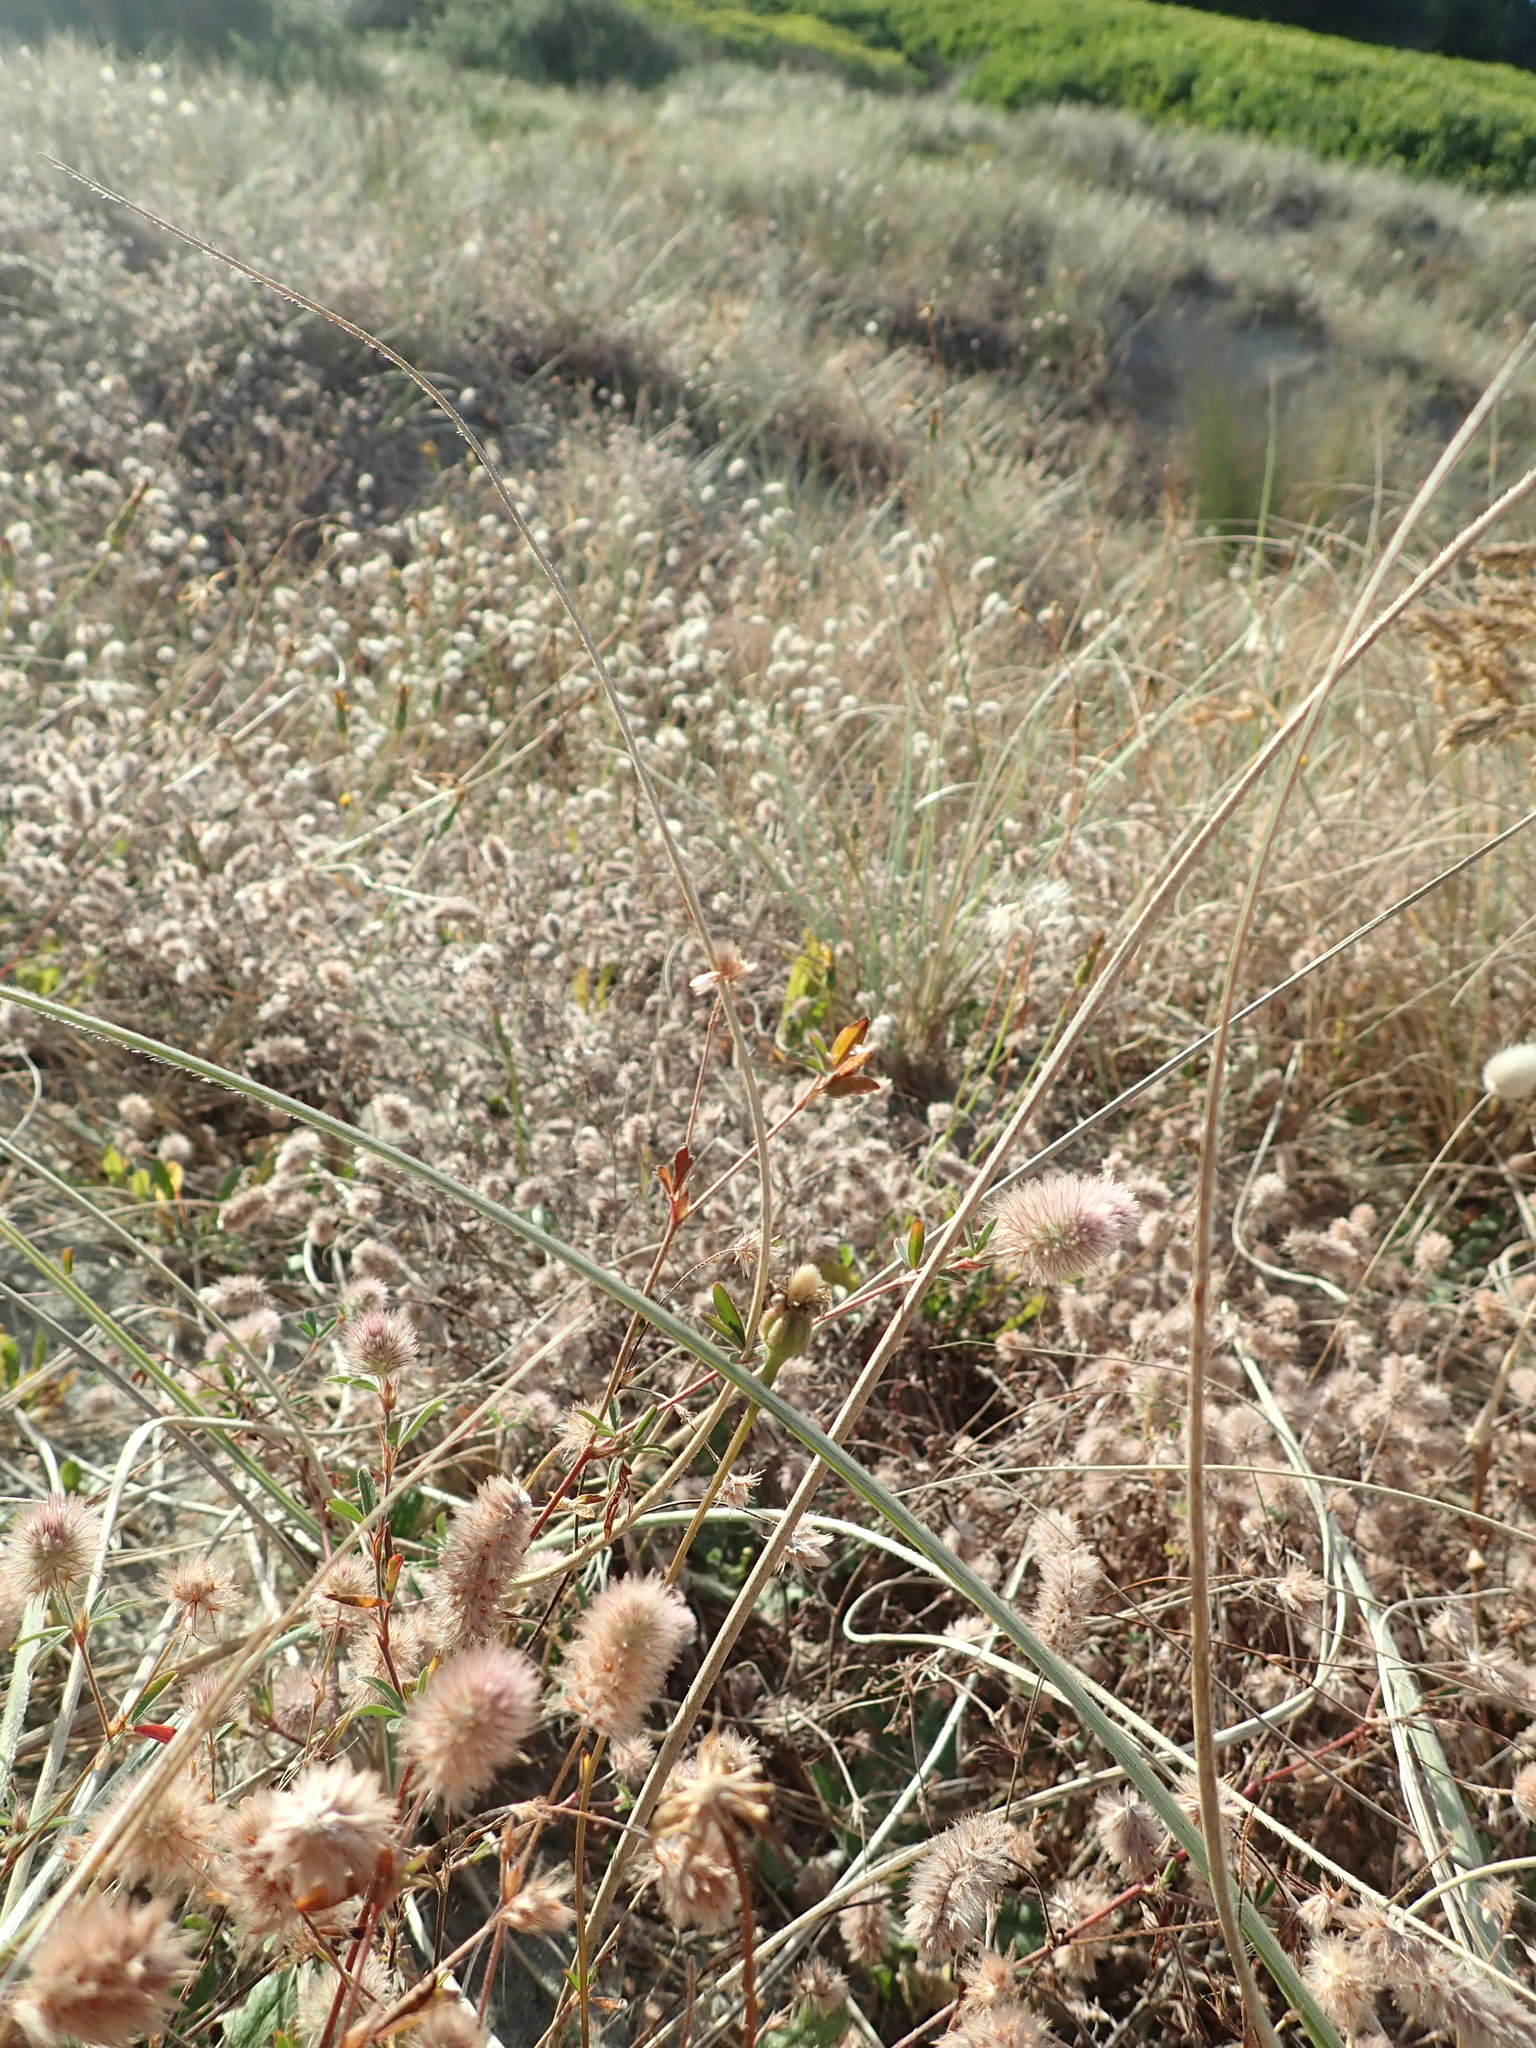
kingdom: Plantae
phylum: Tracheophyta
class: Magnoliopsida
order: Fabales
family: Fabaceae
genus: Trifolium
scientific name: Trifolium arvense
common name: Hare's-foot clover
